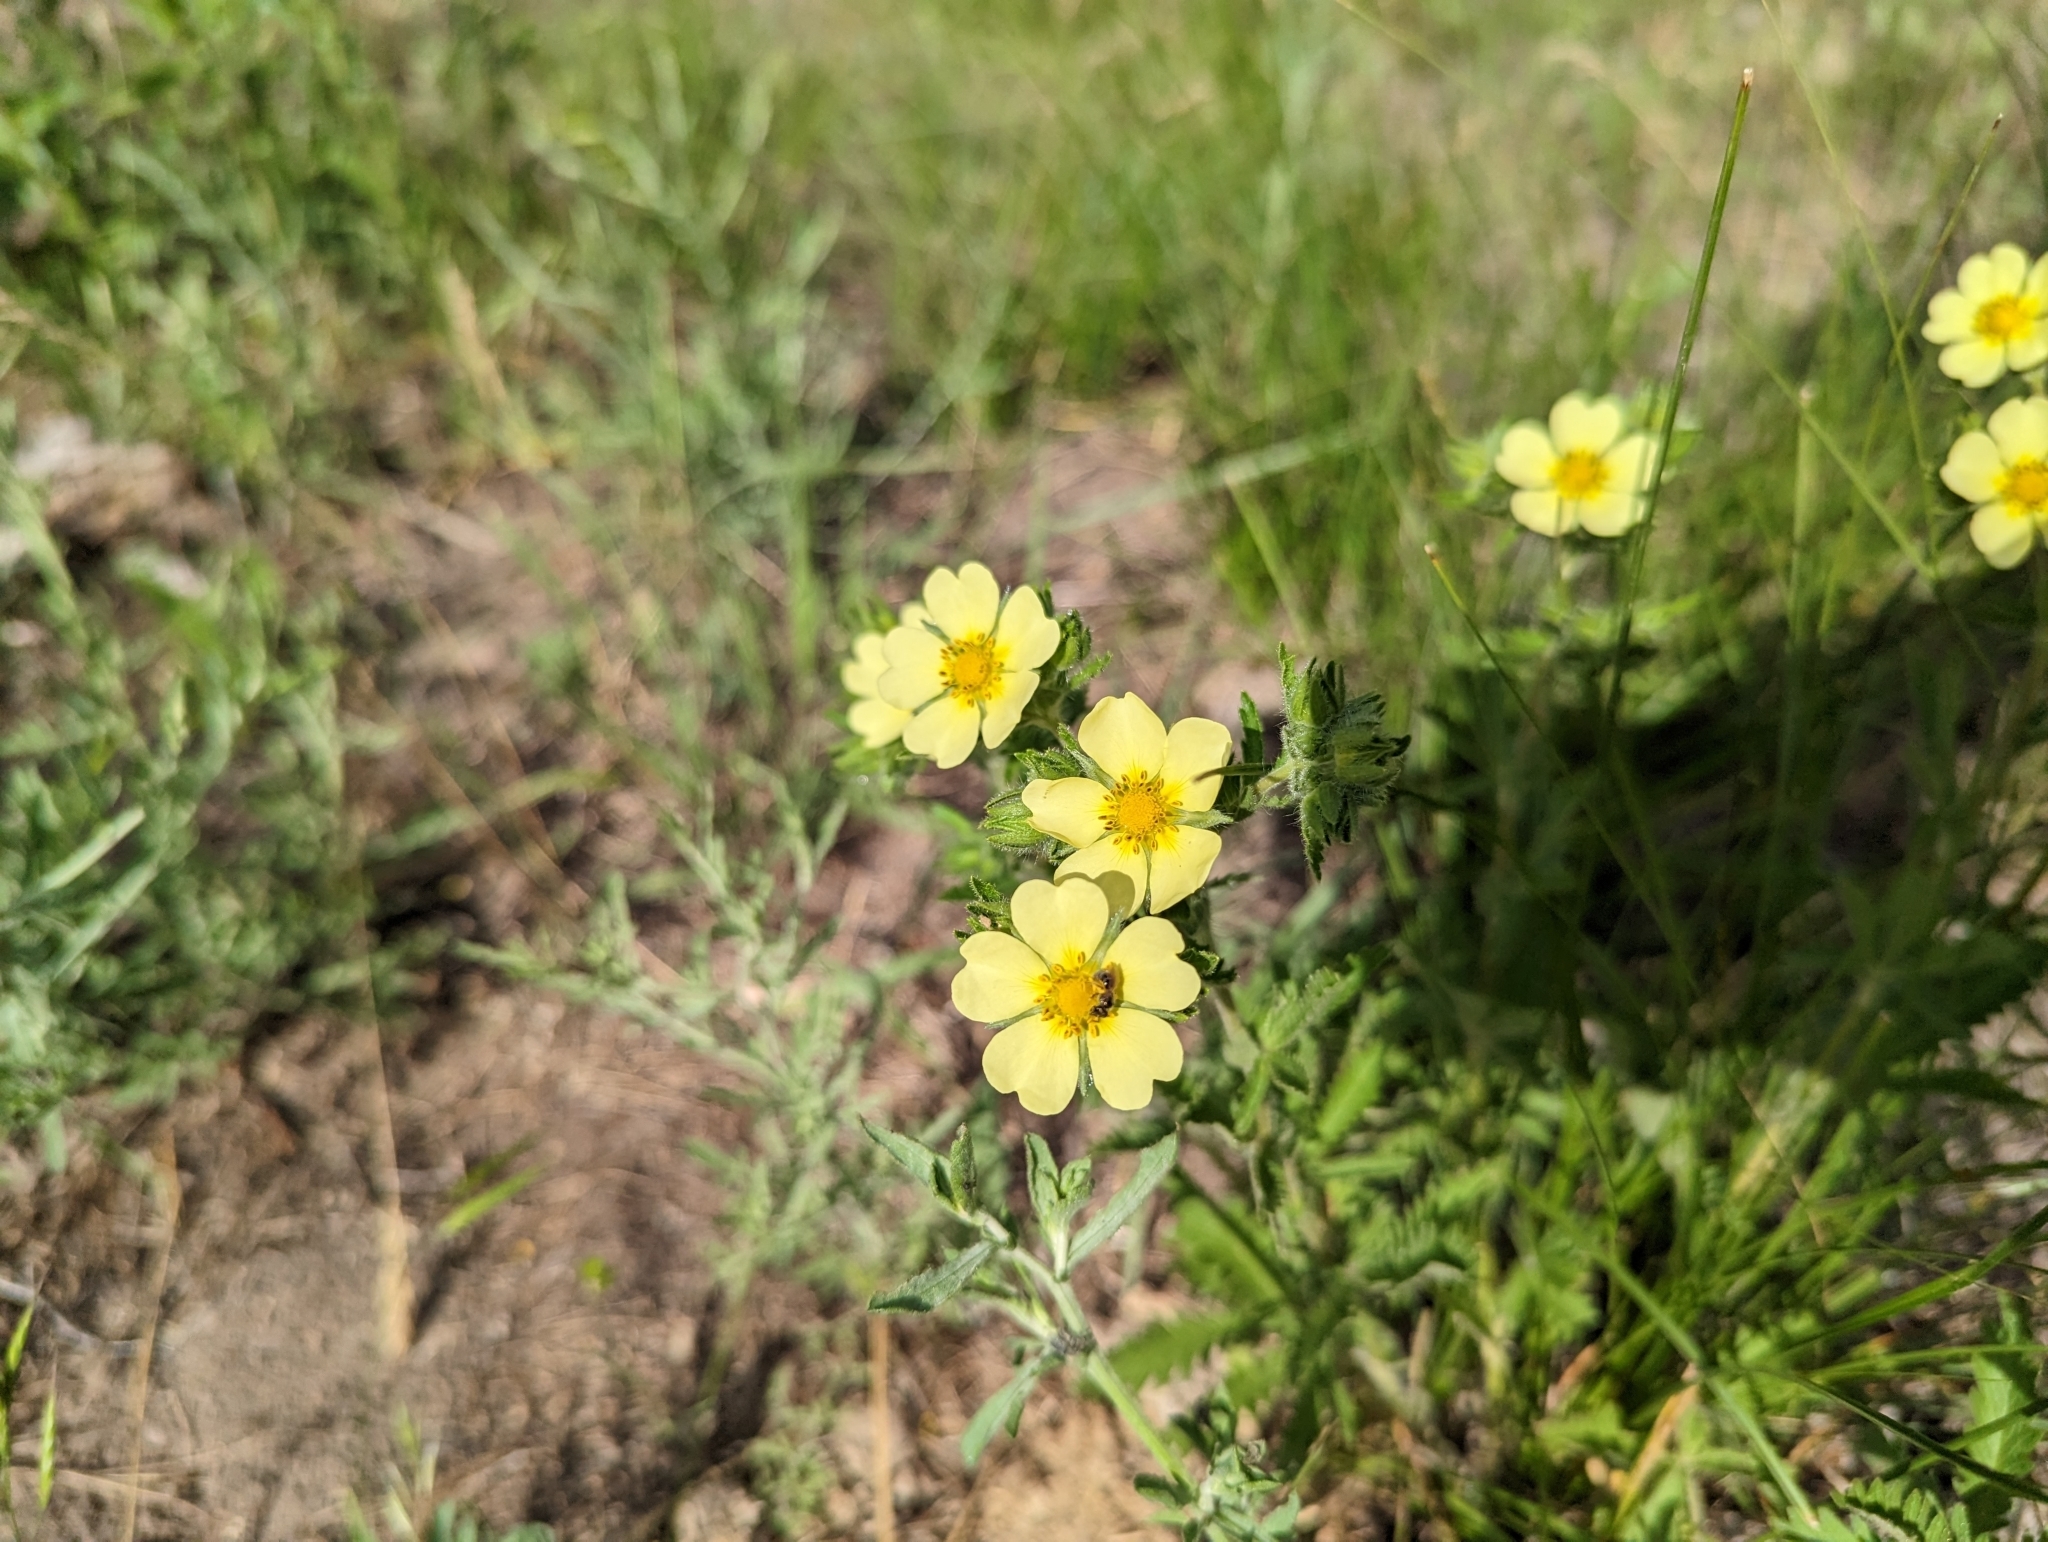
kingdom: Plantae
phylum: Tracheophyta
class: Magnoliopsida
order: Rosales
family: Rosaceae
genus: Potentilla
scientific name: Potentilla recta
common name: Sulphur cinquefoil
